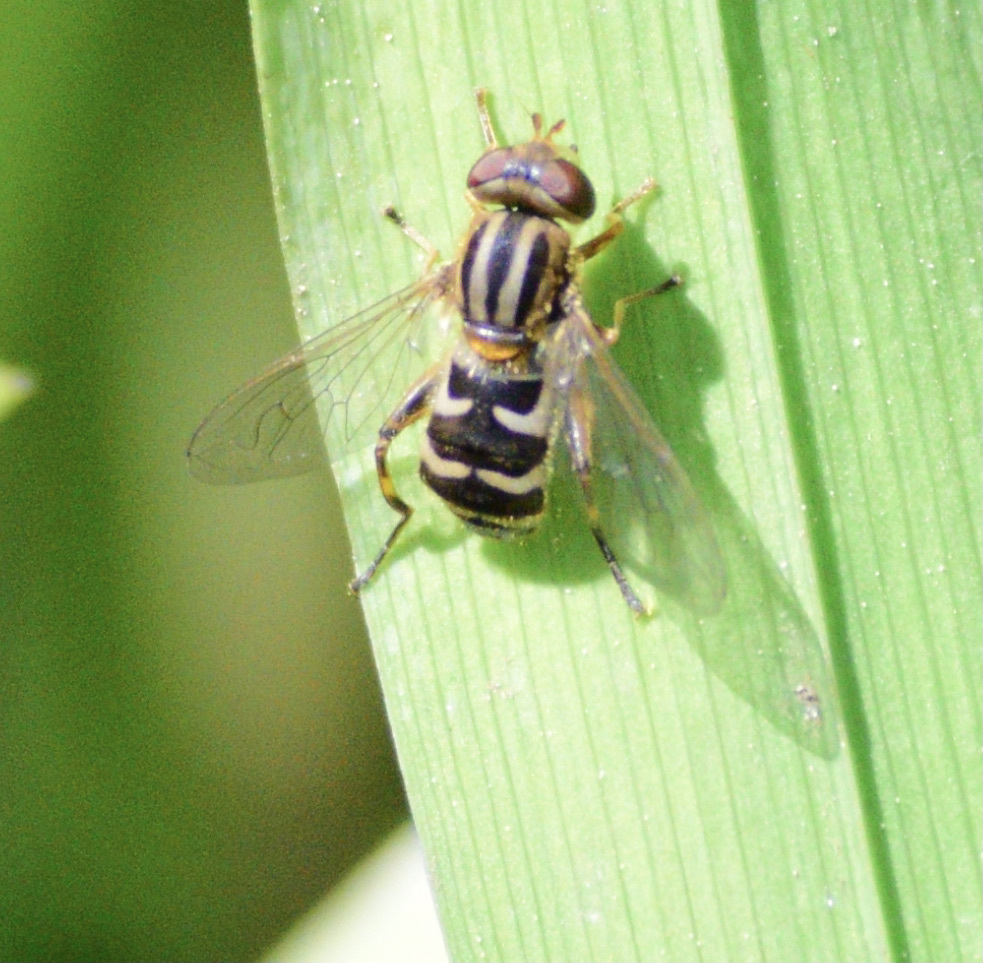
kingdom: Animalia
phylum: Arthropoda
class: Insecta
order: Diptera
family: Syrphidae
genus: Anasimyia
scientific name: Anasimyia
